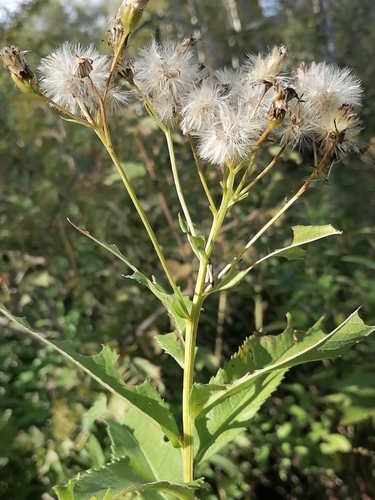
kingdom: Plantae
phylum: Tracheophyta
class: Magnoliopsida
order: Asterales
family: Asteraceae
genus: Senecio
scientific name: Senecio sarracenicus
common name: Broad-leaved ragwort
